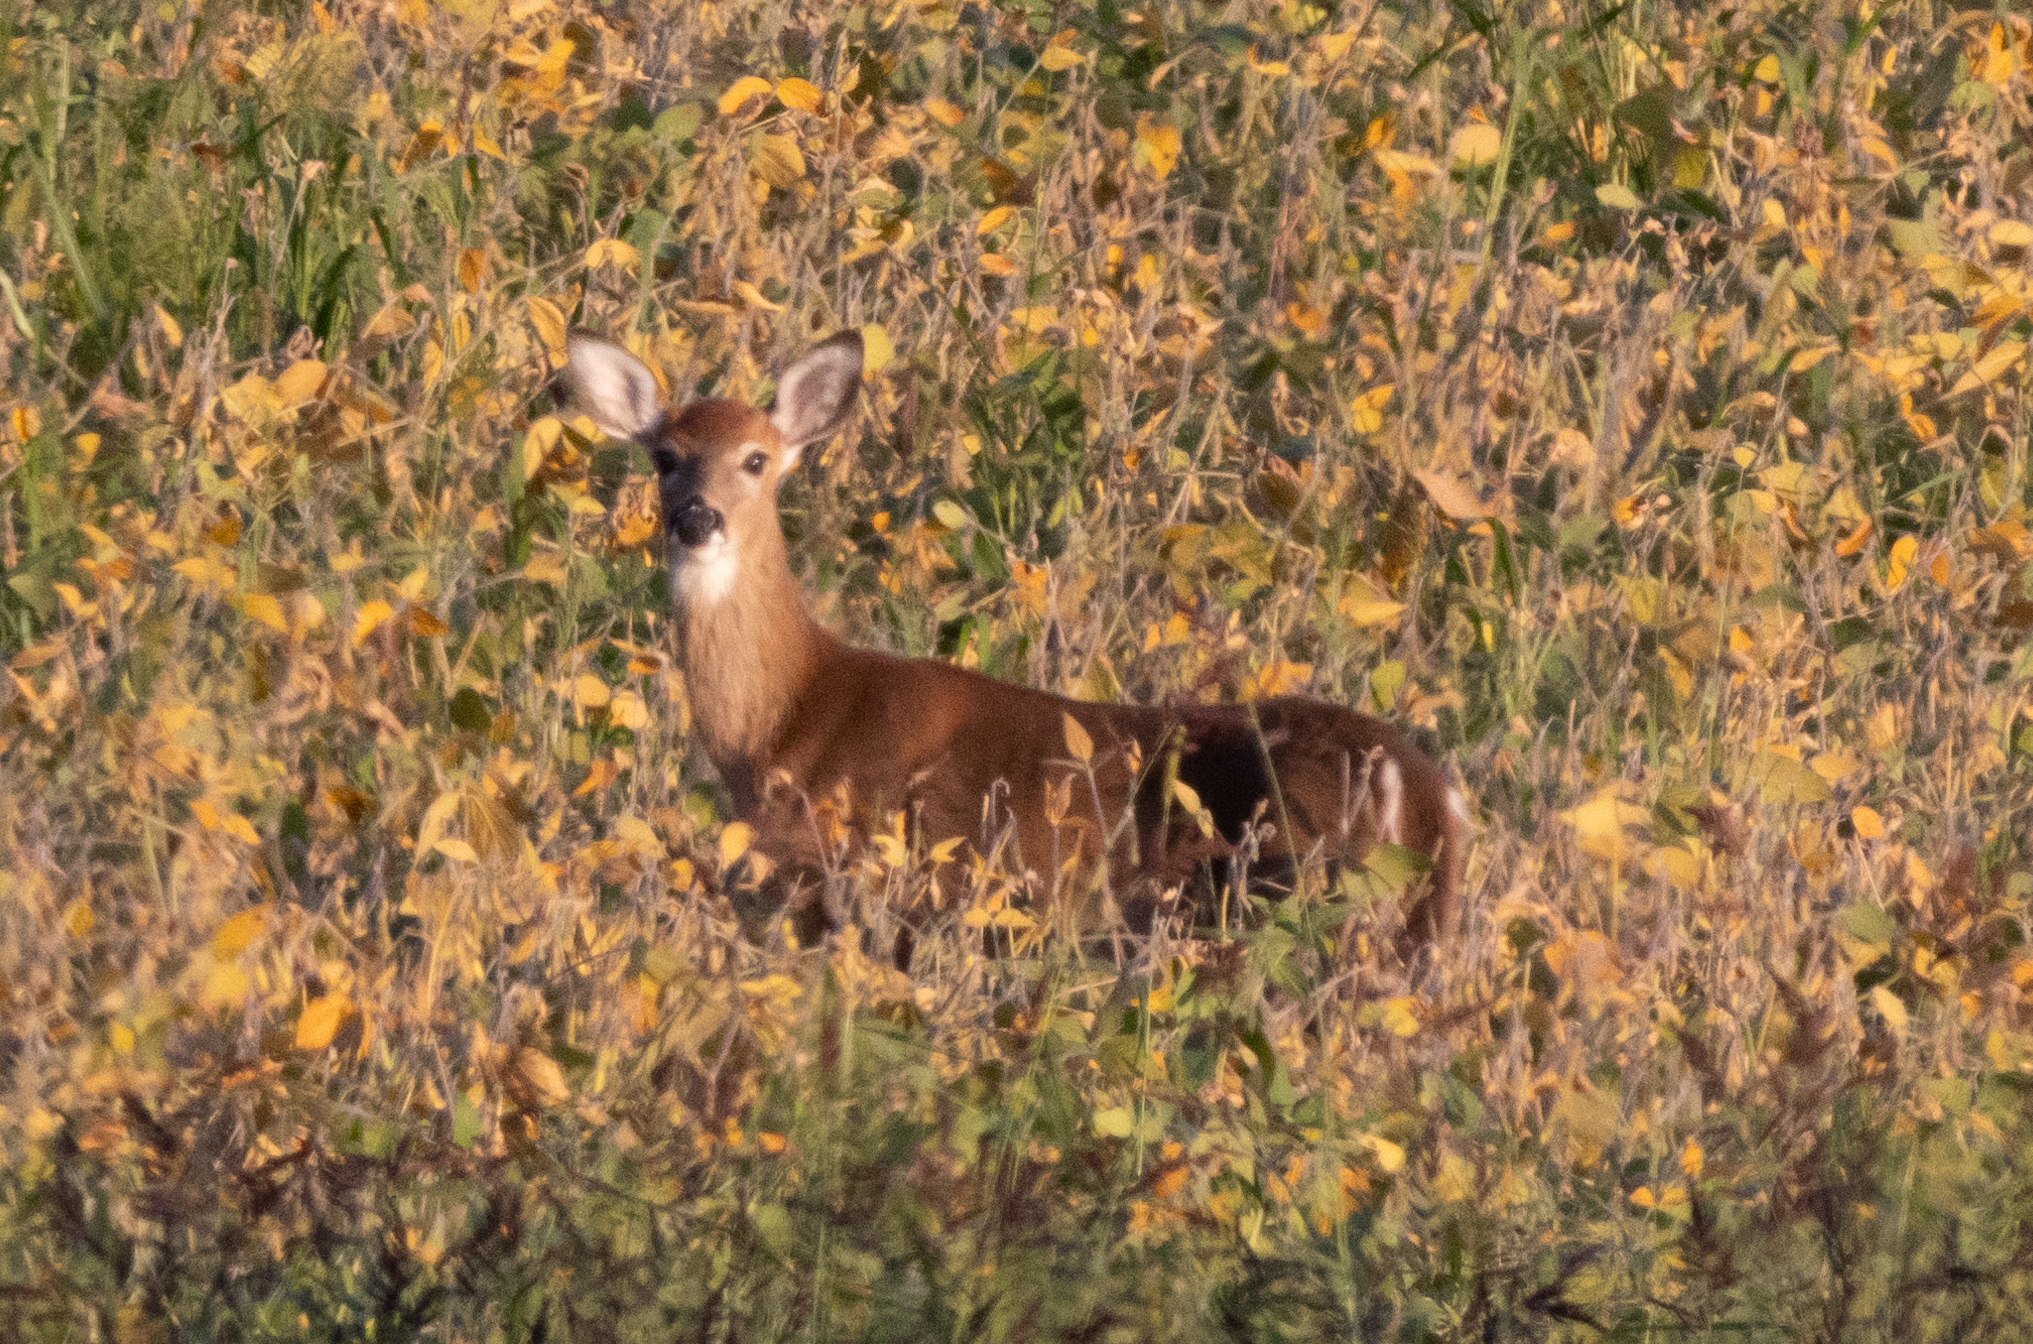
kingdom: Animalia
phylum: Chordata
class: Mammalia
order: Artiodactyla
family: Cervidae
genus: Odocoileus
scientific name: Odocoileus virginianus
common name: White-tailed deer
